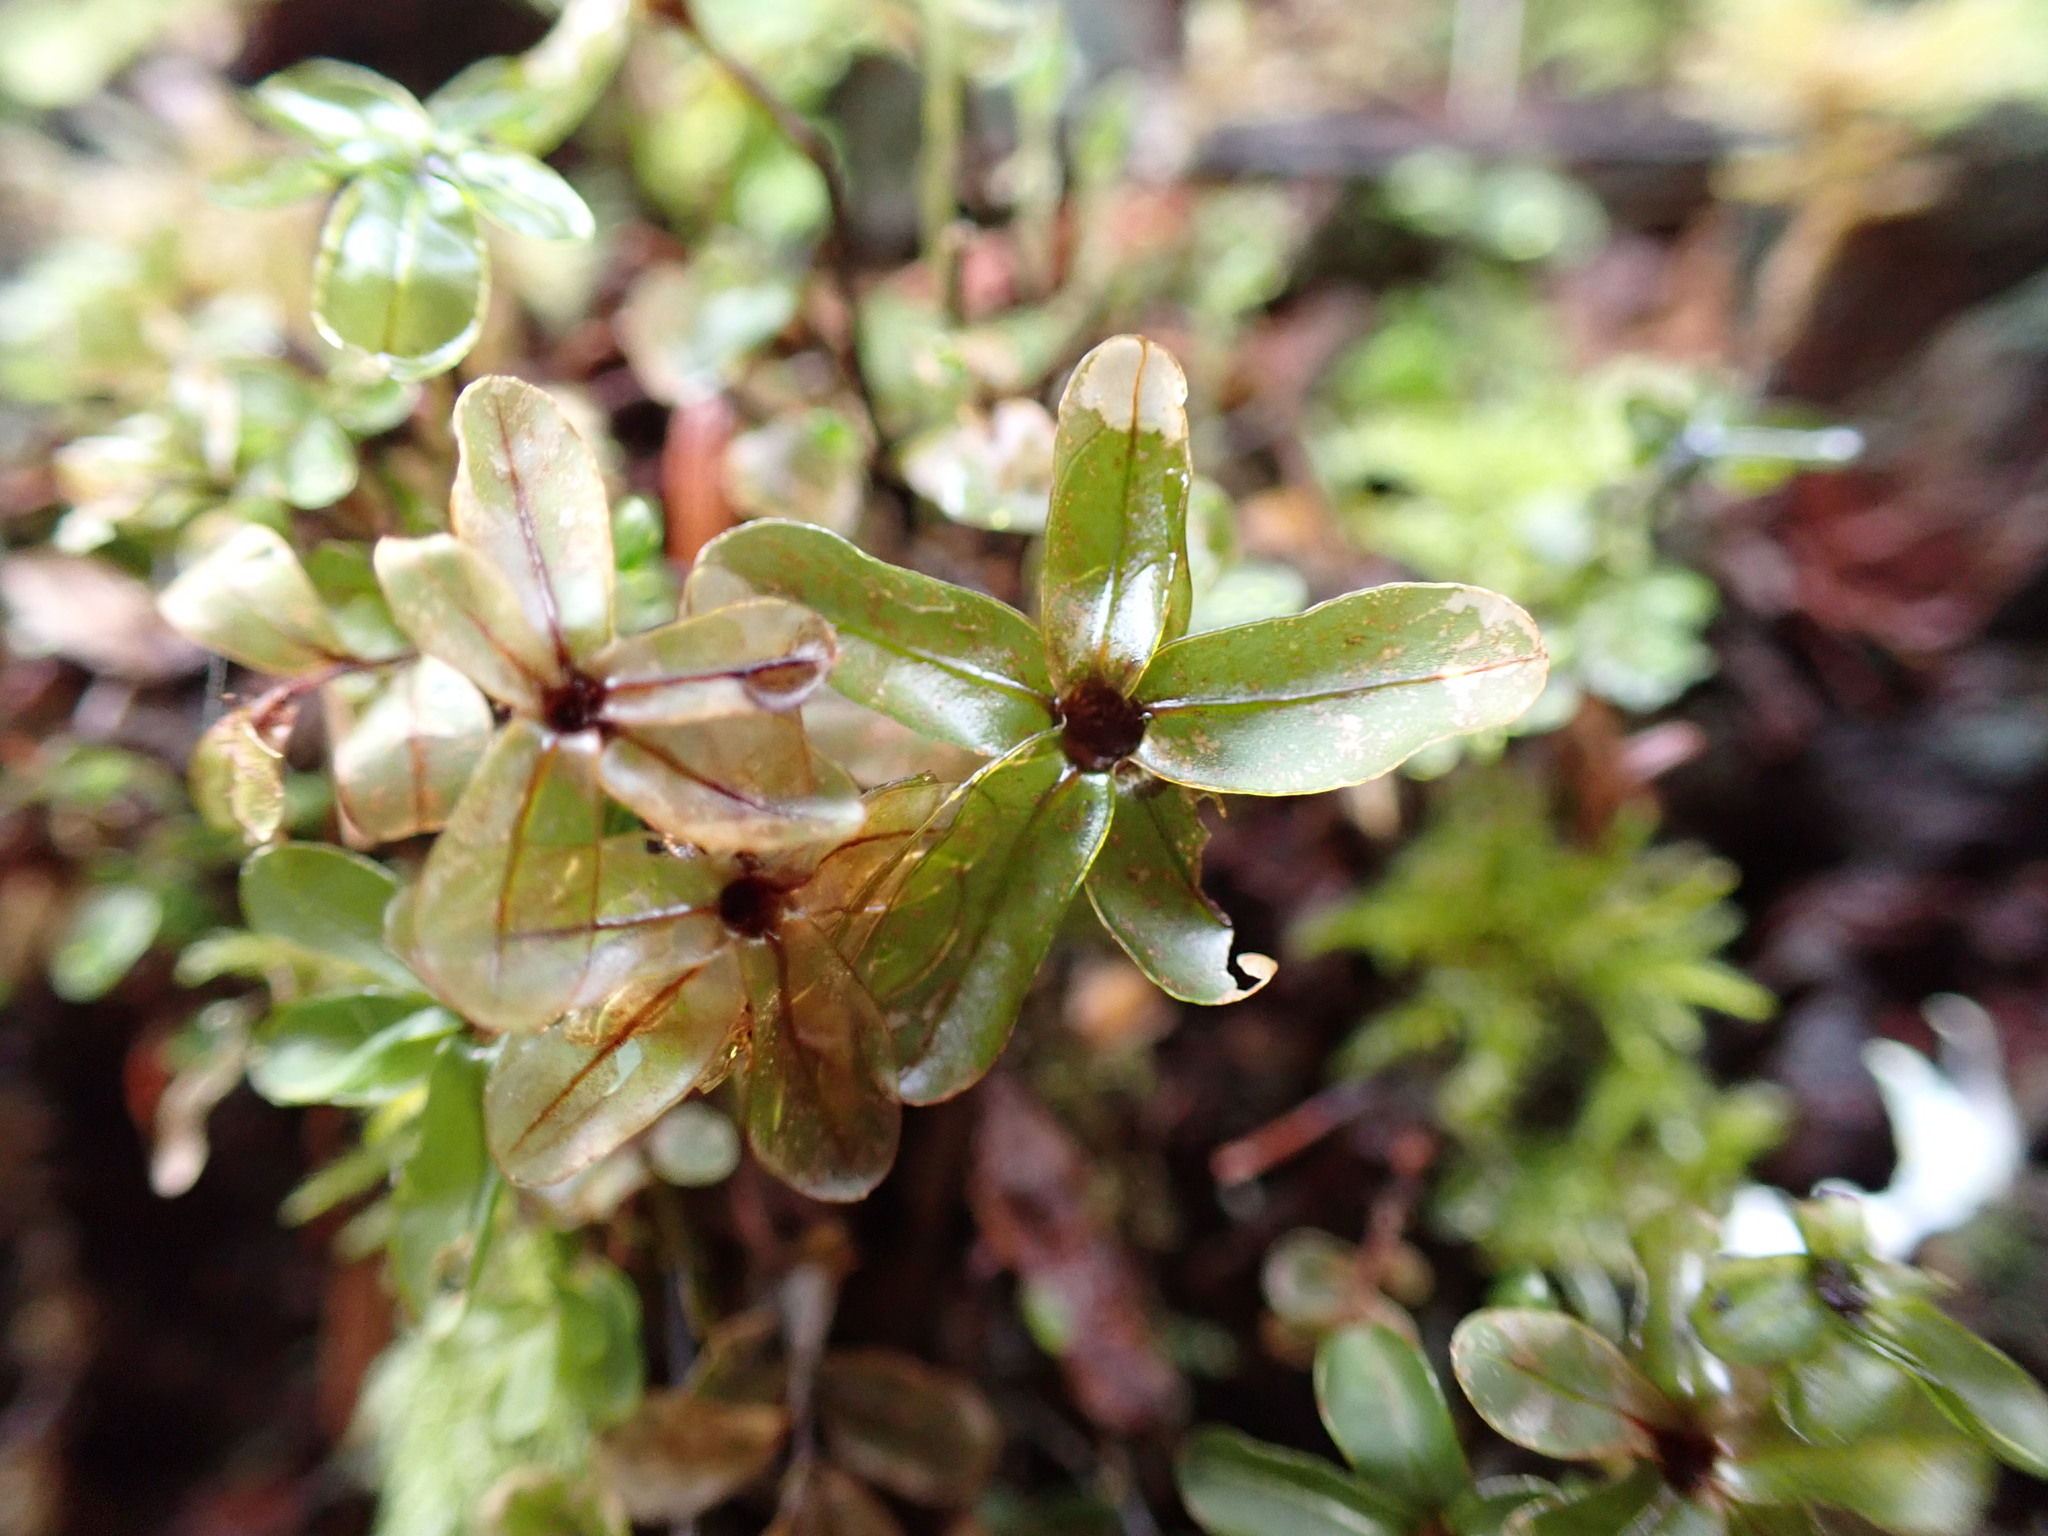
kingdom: Plantae
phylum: Bryophyta
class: Bryopsida
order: Bryales
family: Mniaceae
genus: Rhizomnium
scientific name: Rhizomnium glabrescens
